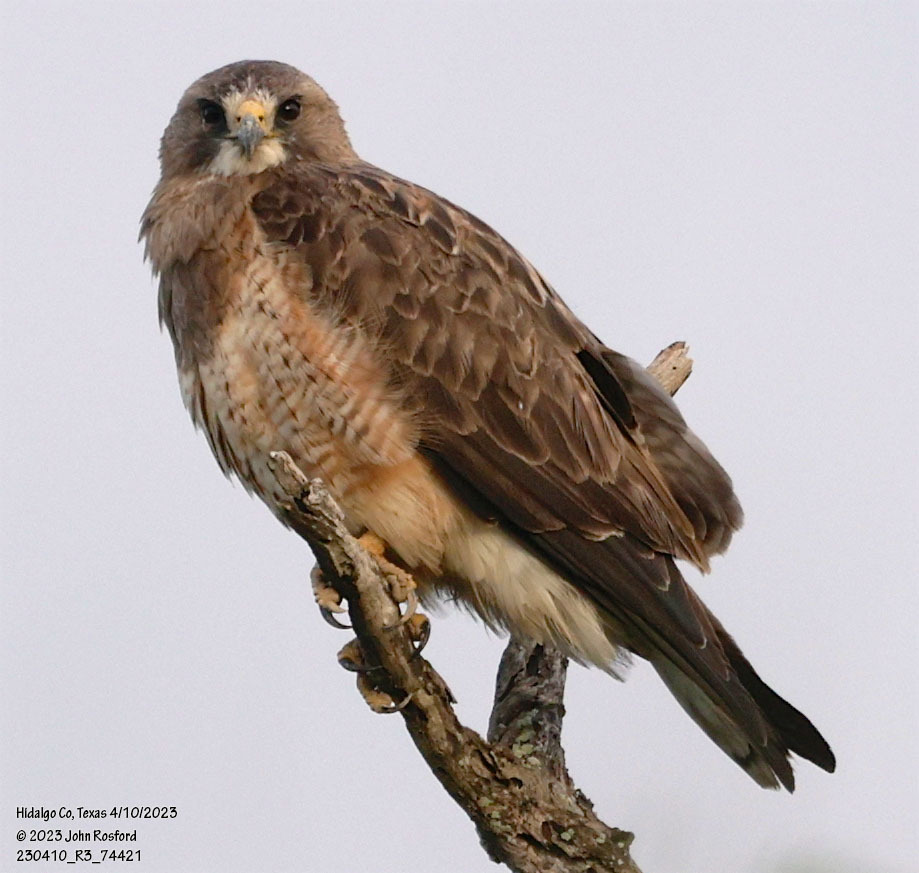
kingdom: Animalia
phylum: Chordata
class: Aves
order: Accipitriformes
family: Accipitridae
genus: Buteo
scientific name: Buteo swainsoni
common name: Swainson's hawk
